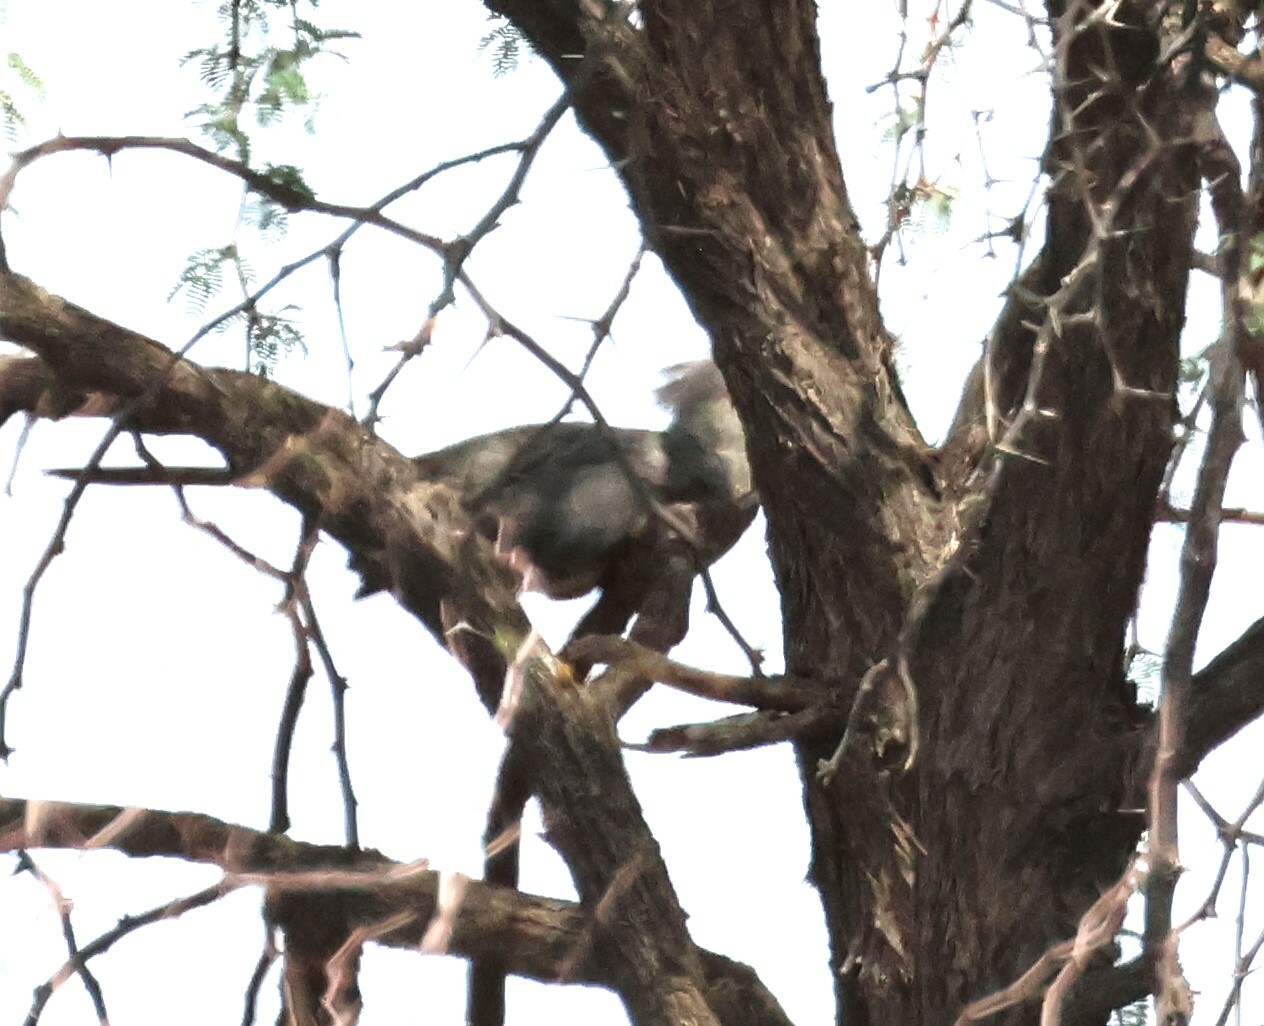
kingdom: Animalia
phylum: Chordata
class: Aves
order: Musophagiformes
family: Musophagidae
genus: Corythaixoides
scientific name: Corythaixoides concolor
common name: Grey go-away-bird
